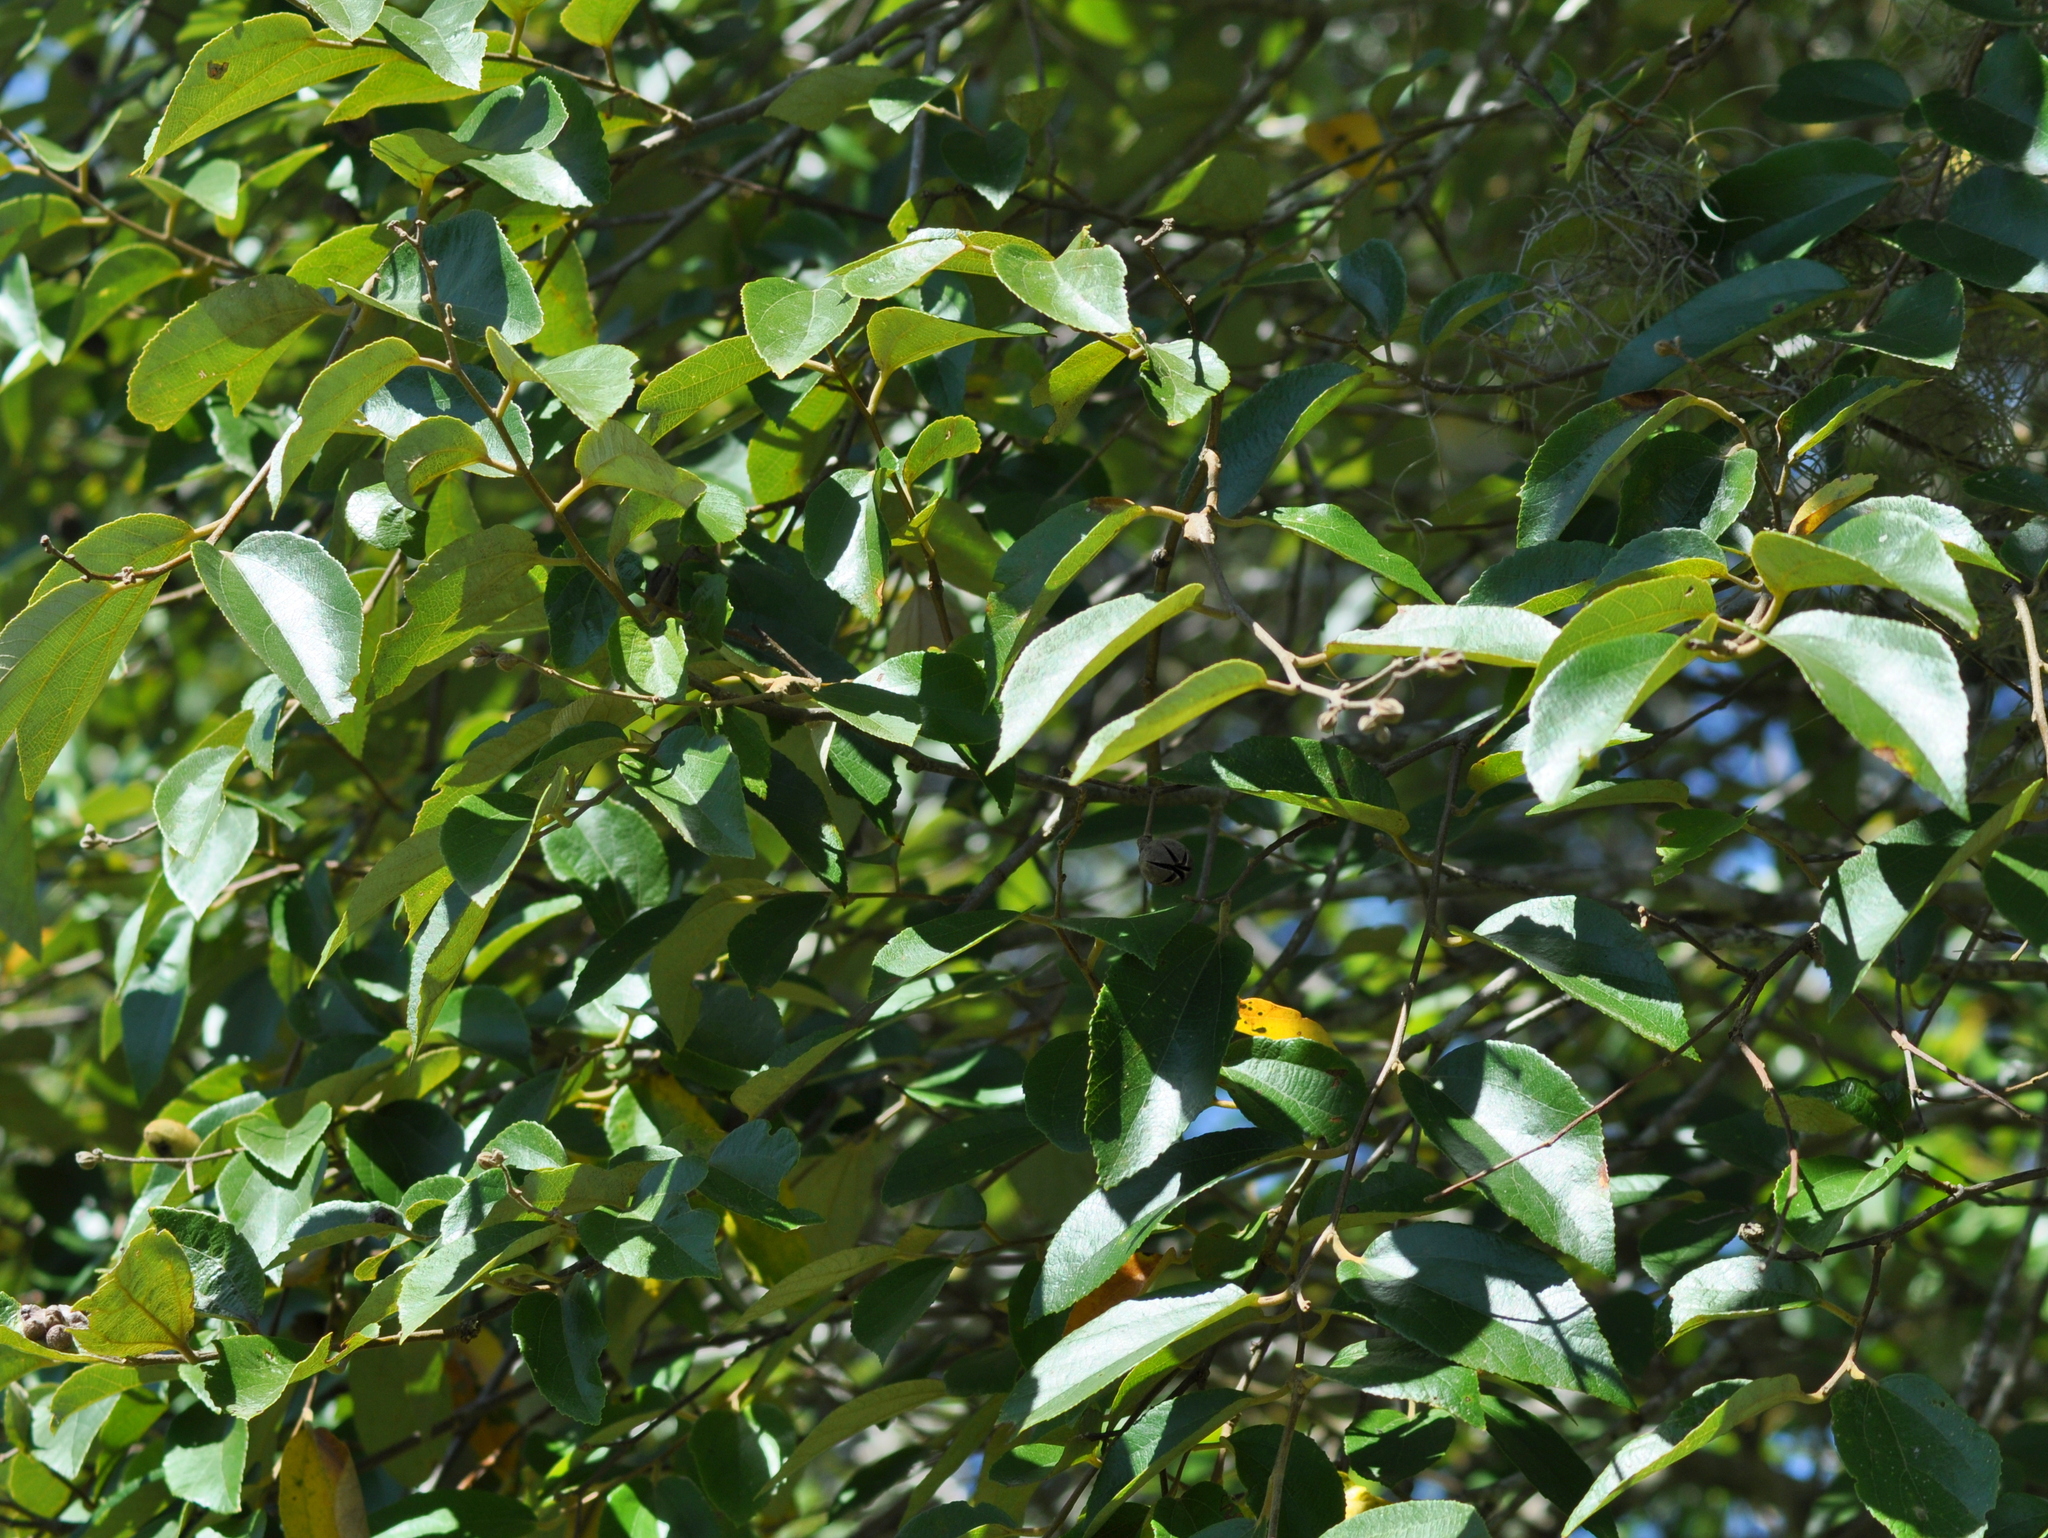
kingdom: Plantae
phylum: Tracheophyta
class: Magnoliopsida
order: Malvales
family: Malvaceae
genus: Luehea
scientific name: Luehea divaricata
